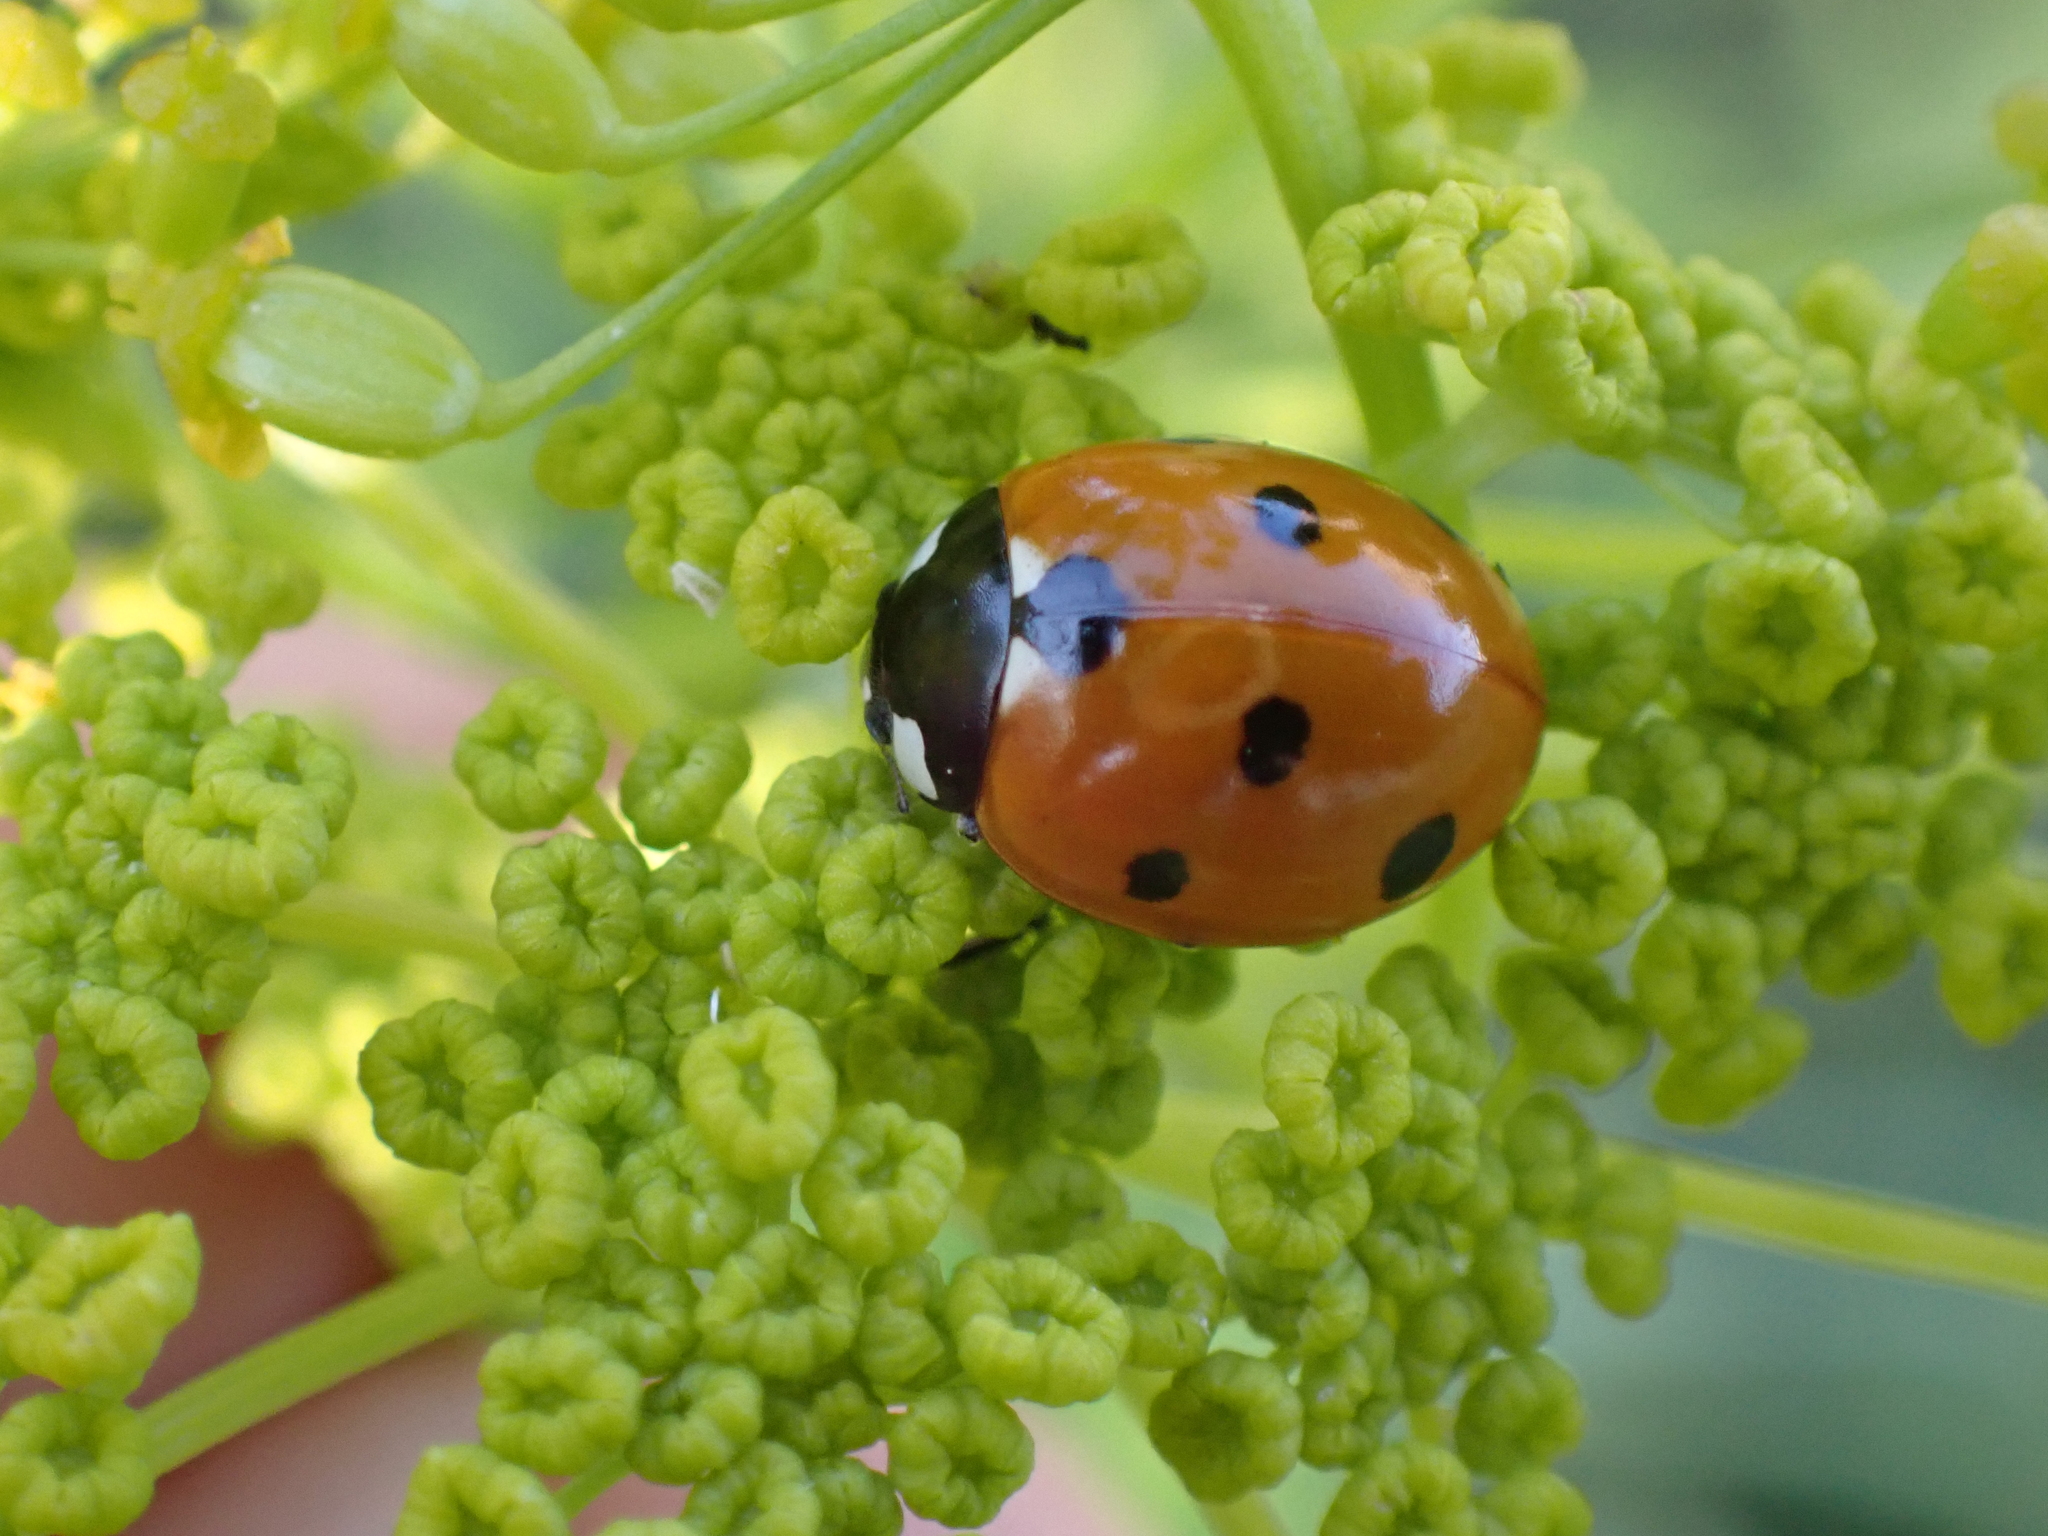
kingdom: Animalia
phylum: Arthropoda
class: Insecta
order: Coleoptera
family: Coccinellidae
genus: Coccinella
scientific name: Coccinella septempunctata
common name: Sevenspotted lady beetle
